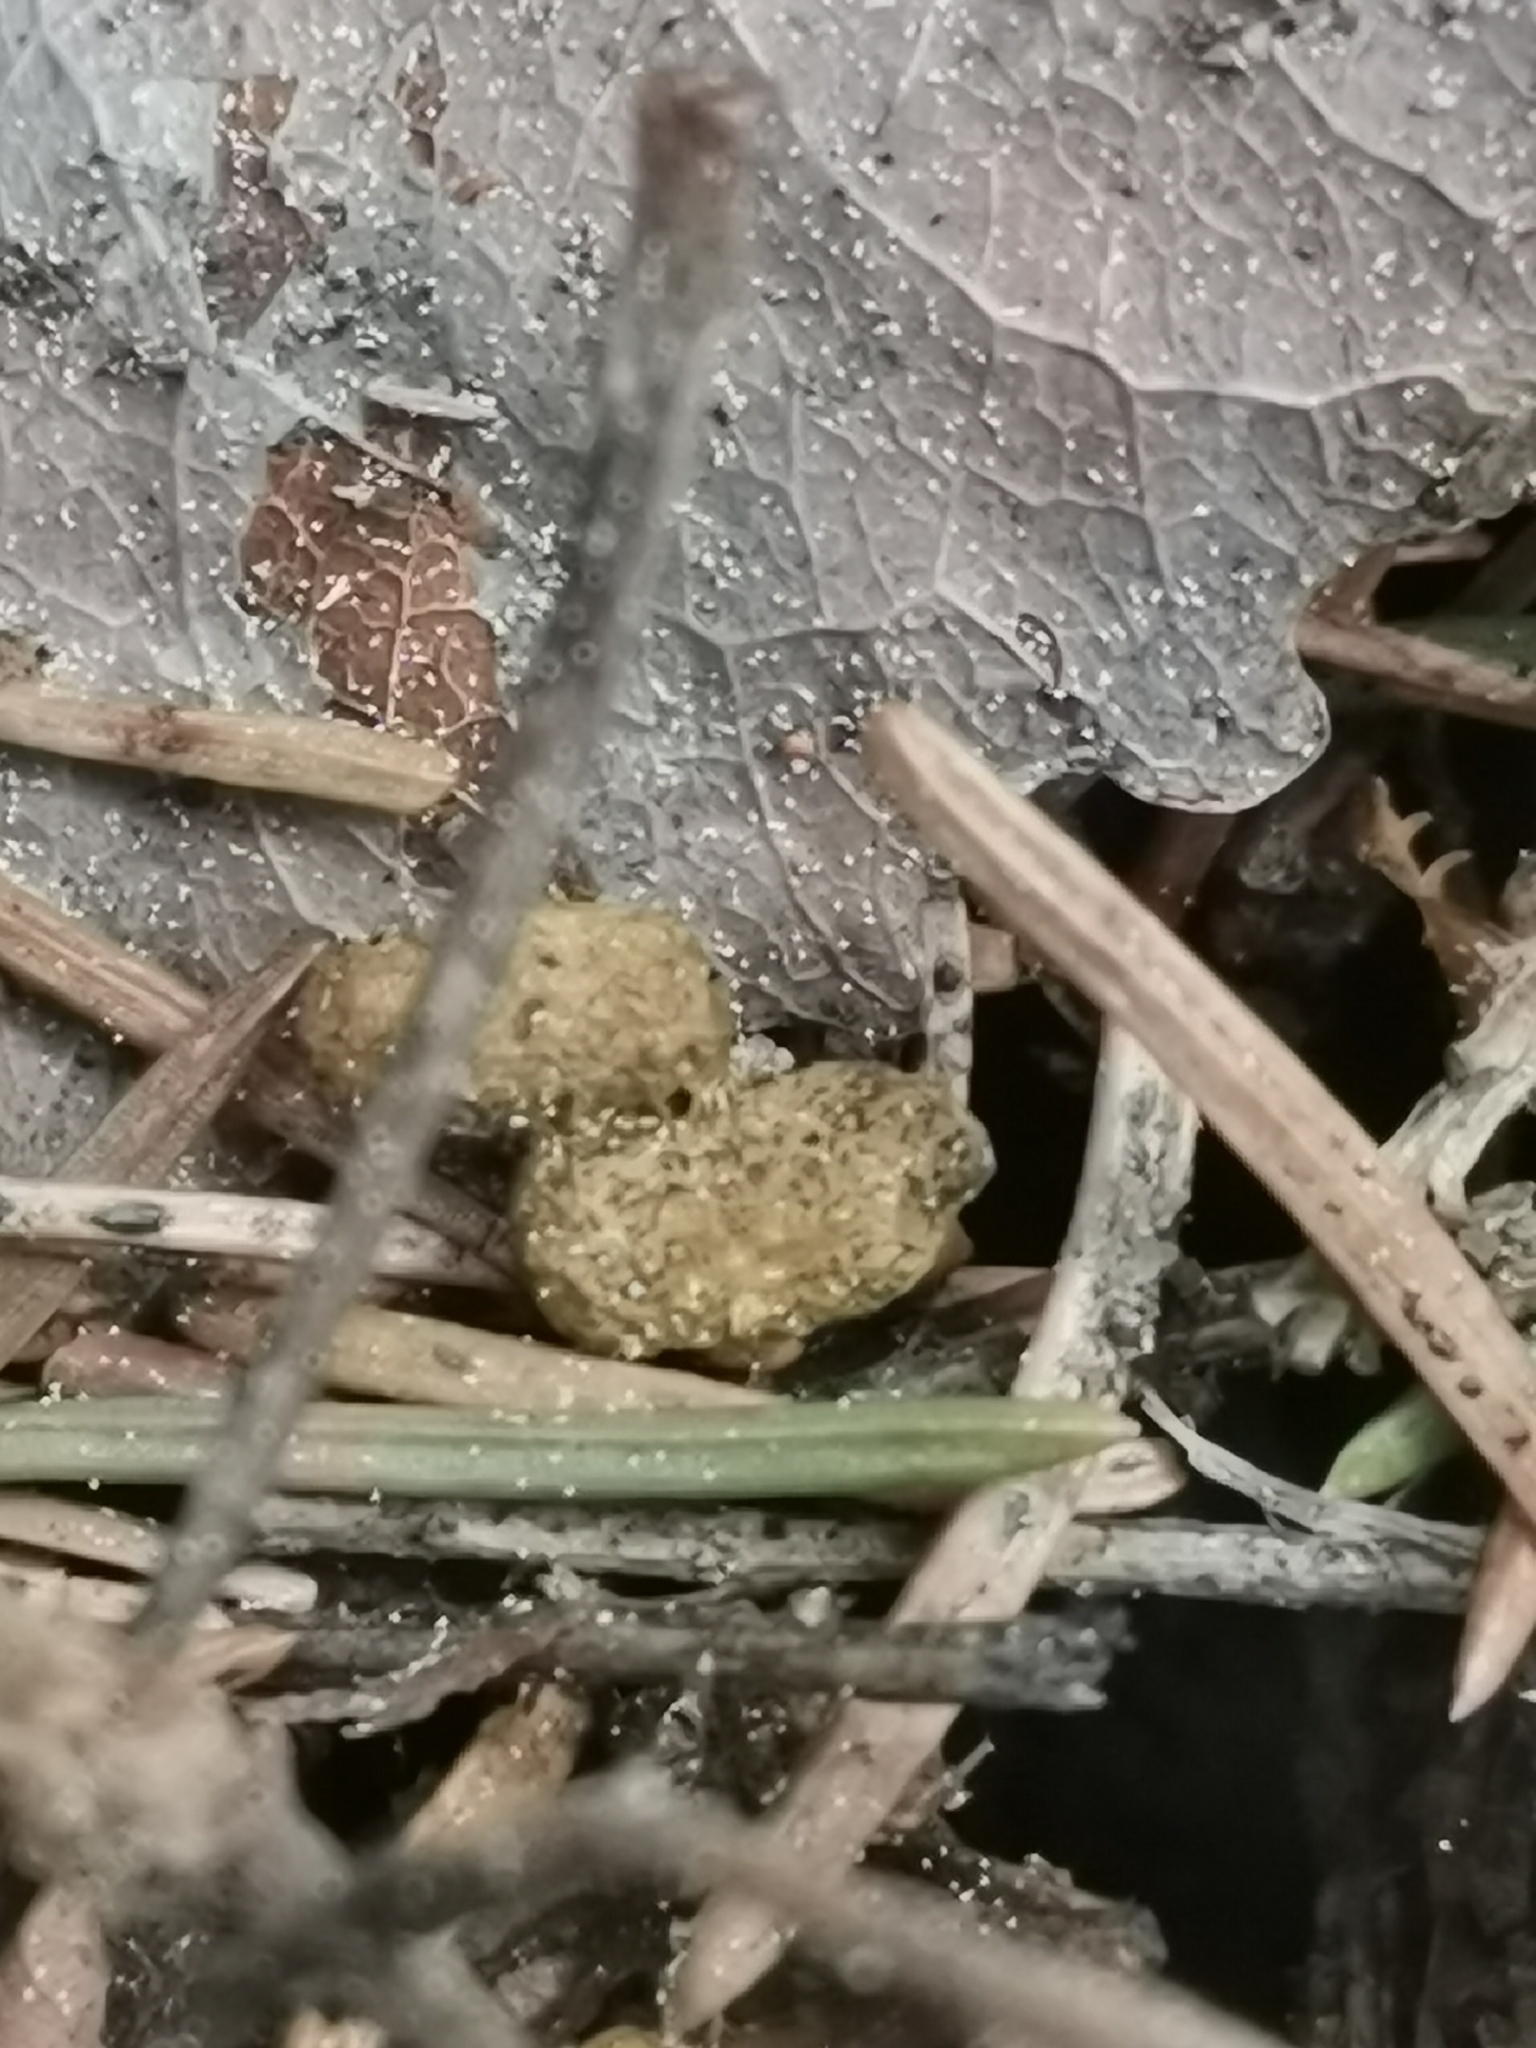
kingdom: Animalia
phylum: Chordata
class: Mammalia
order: Rodentia
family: Sciuridae
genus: Pteromys
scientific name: Pteromys volans
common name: Siberian flying squirrel
